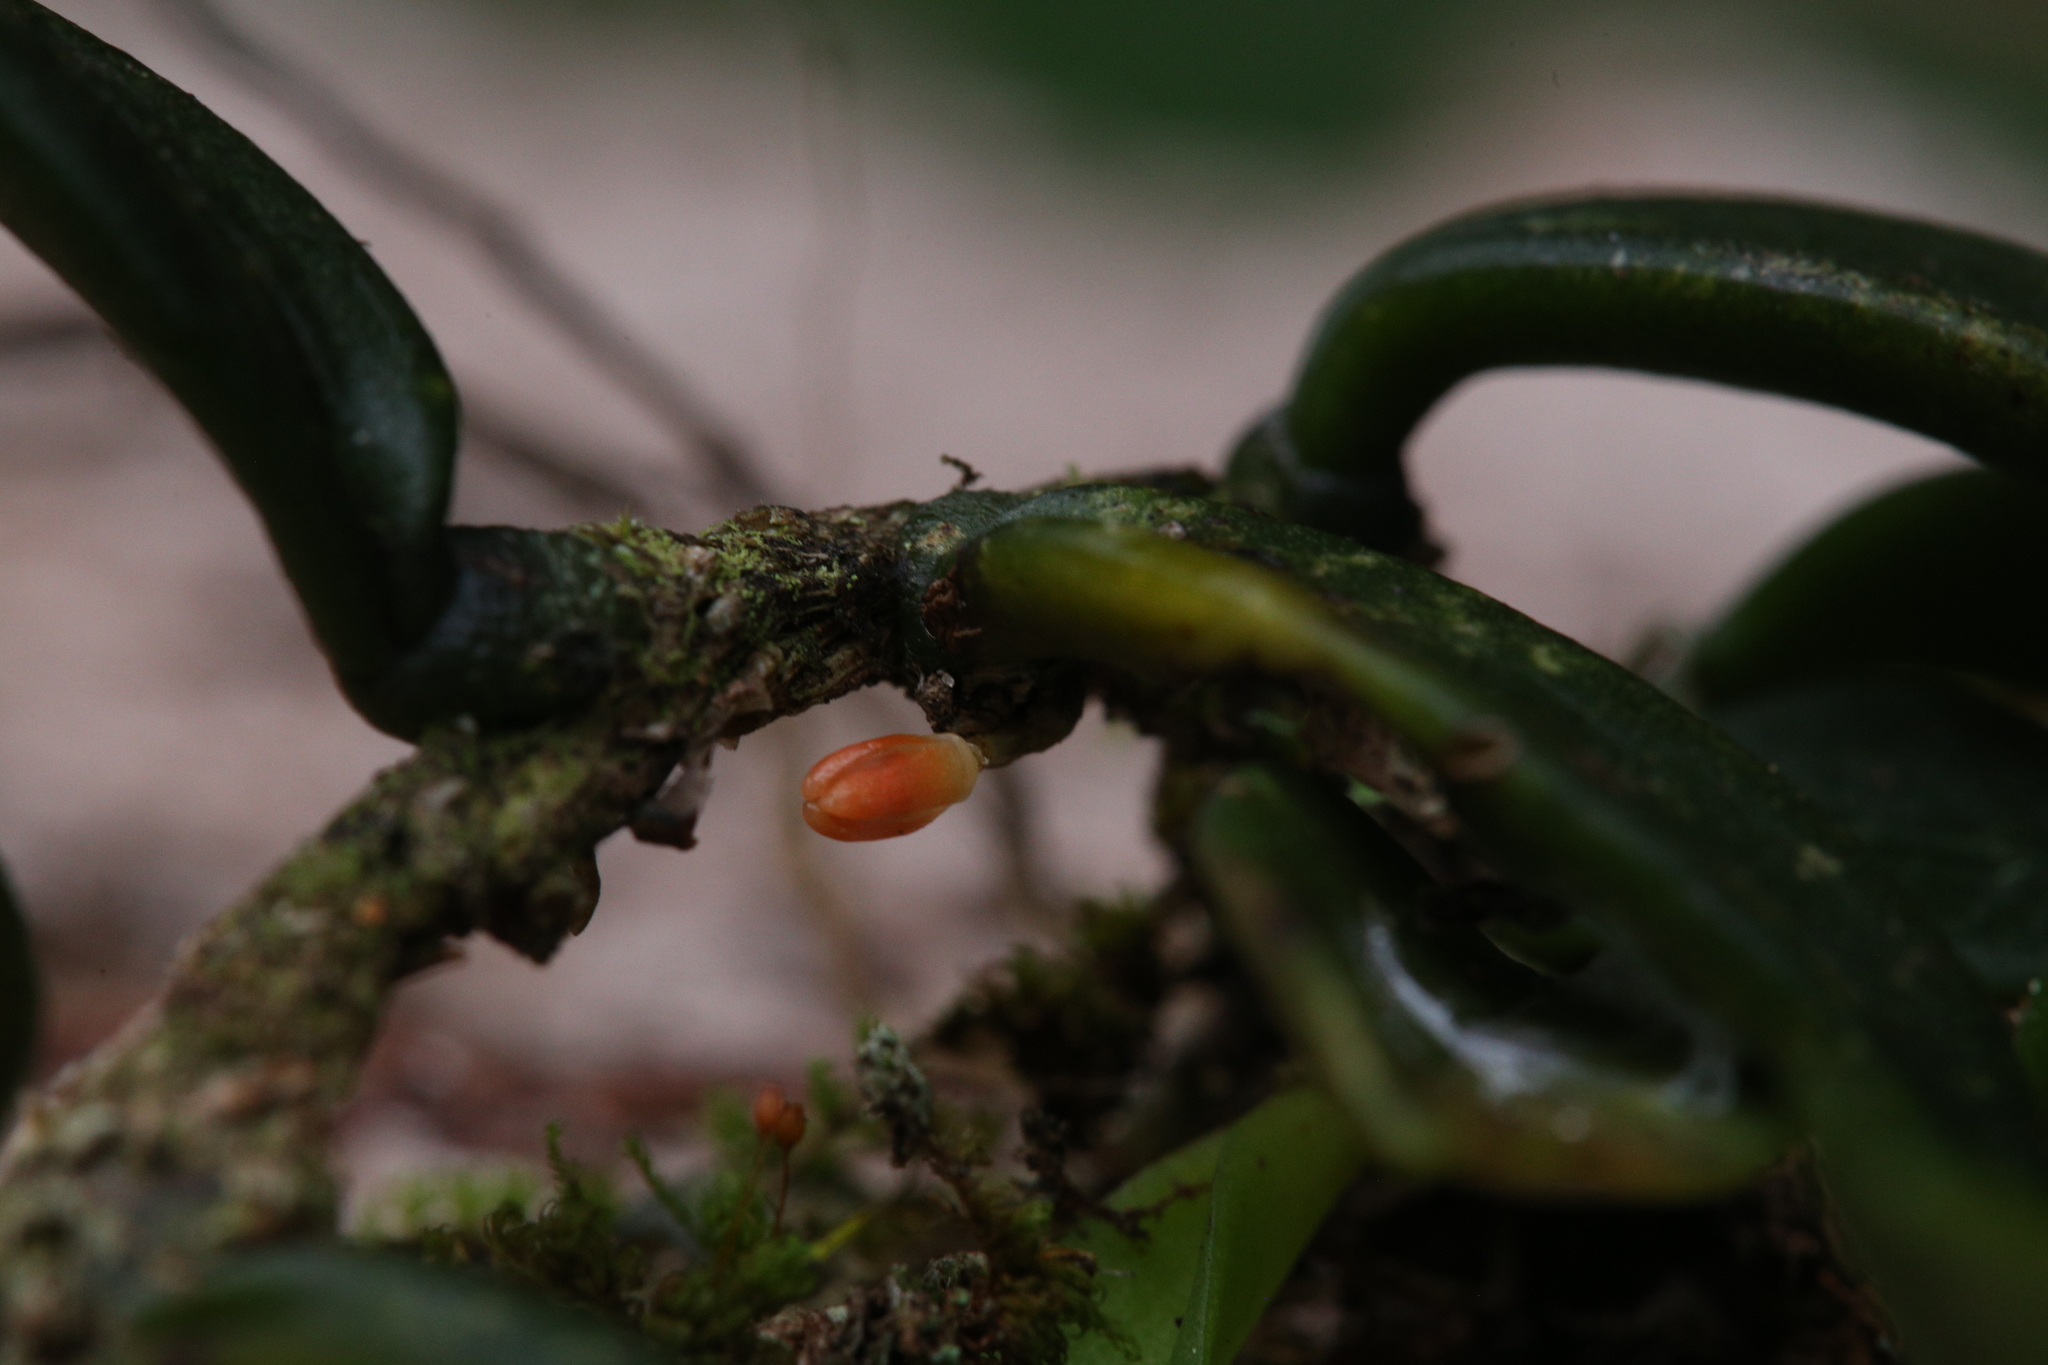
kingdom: Plantae
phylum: Tracheophyta
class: Liliopsida
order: Asparagales
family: Orchidaceae
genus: Bulbophyllum
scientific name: Bulbophyllum schillerianum
